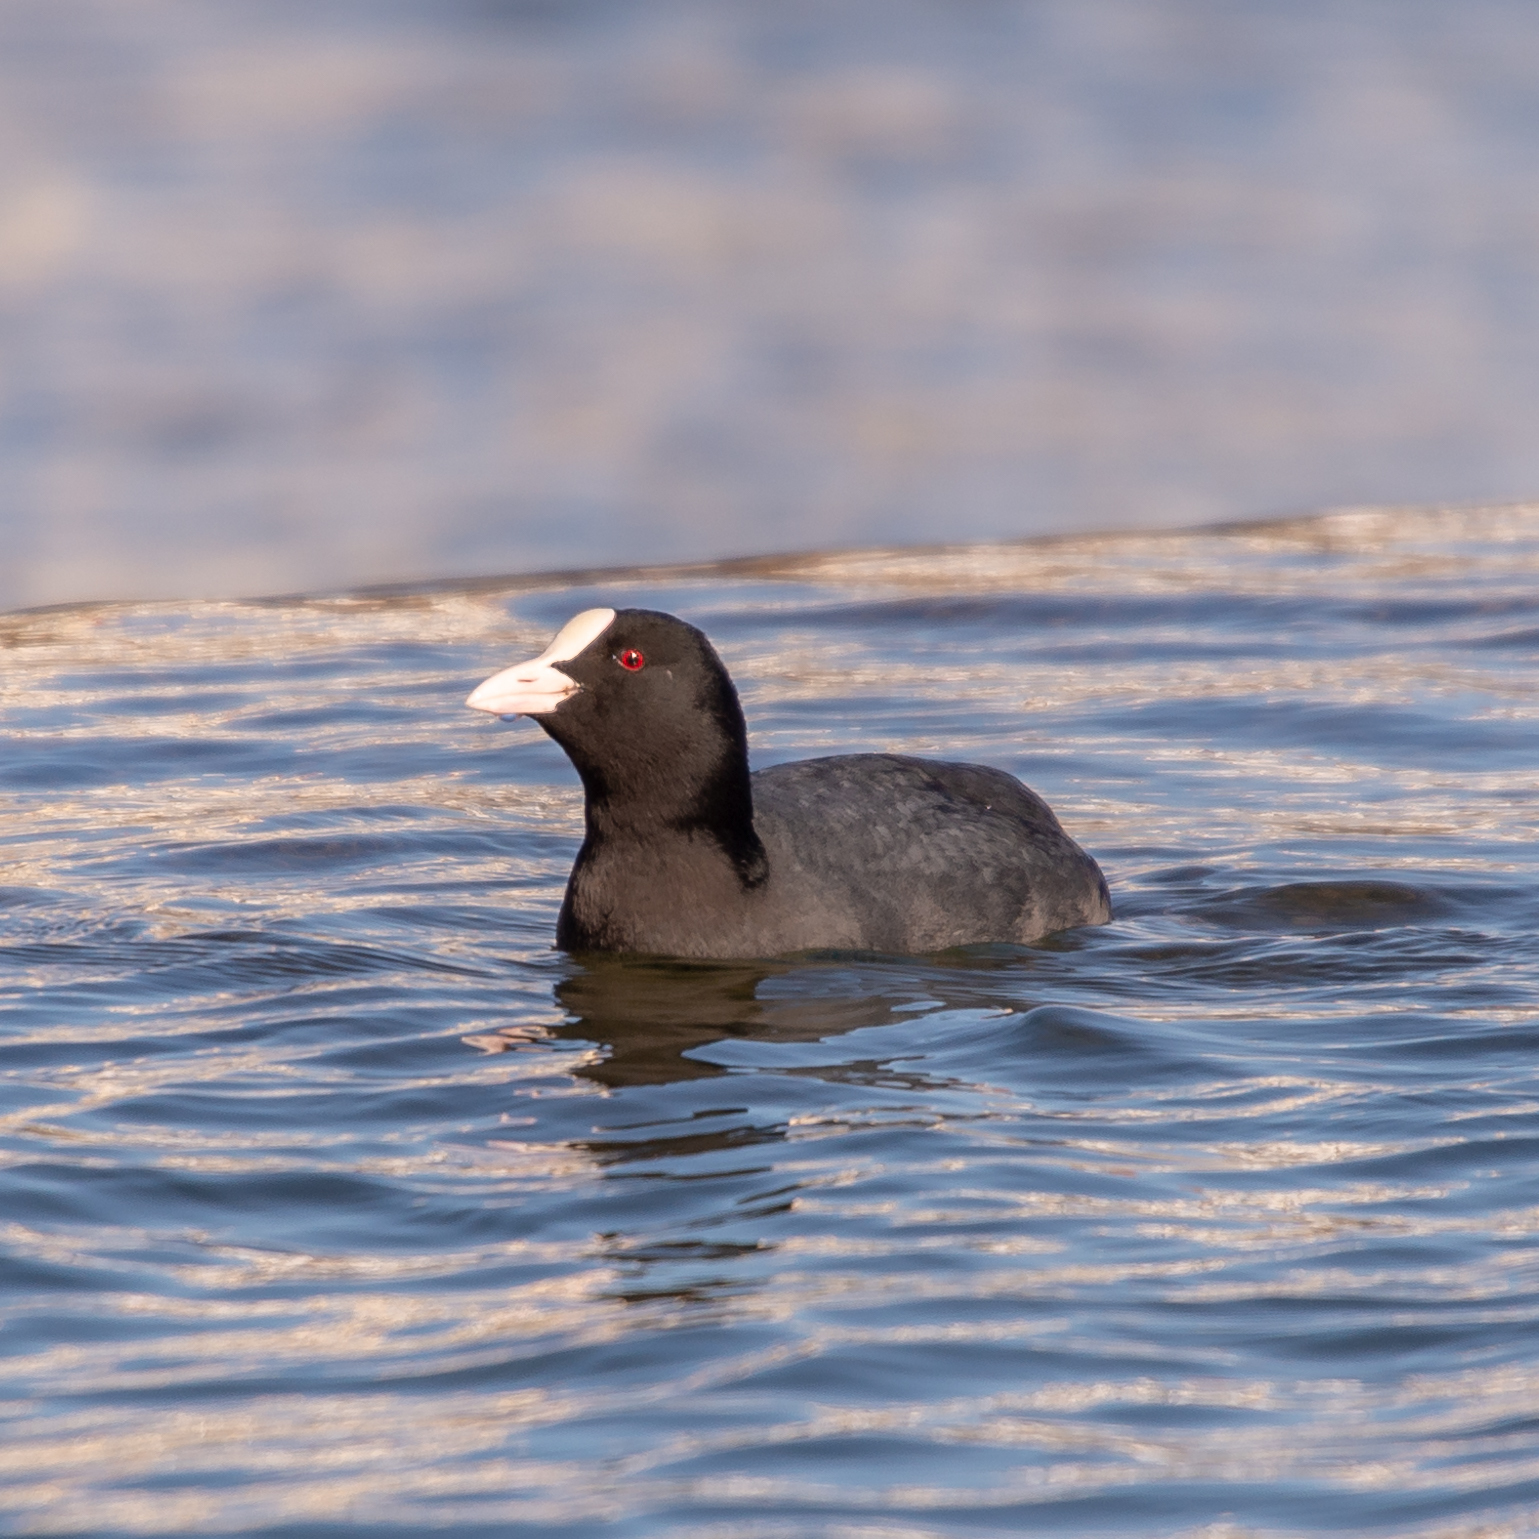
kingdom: Animalia
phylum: Chordata
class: Aves
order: Gruiformes
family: Rallidae
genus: Fulica
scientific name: Fulica atra
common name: Eurasian coot
